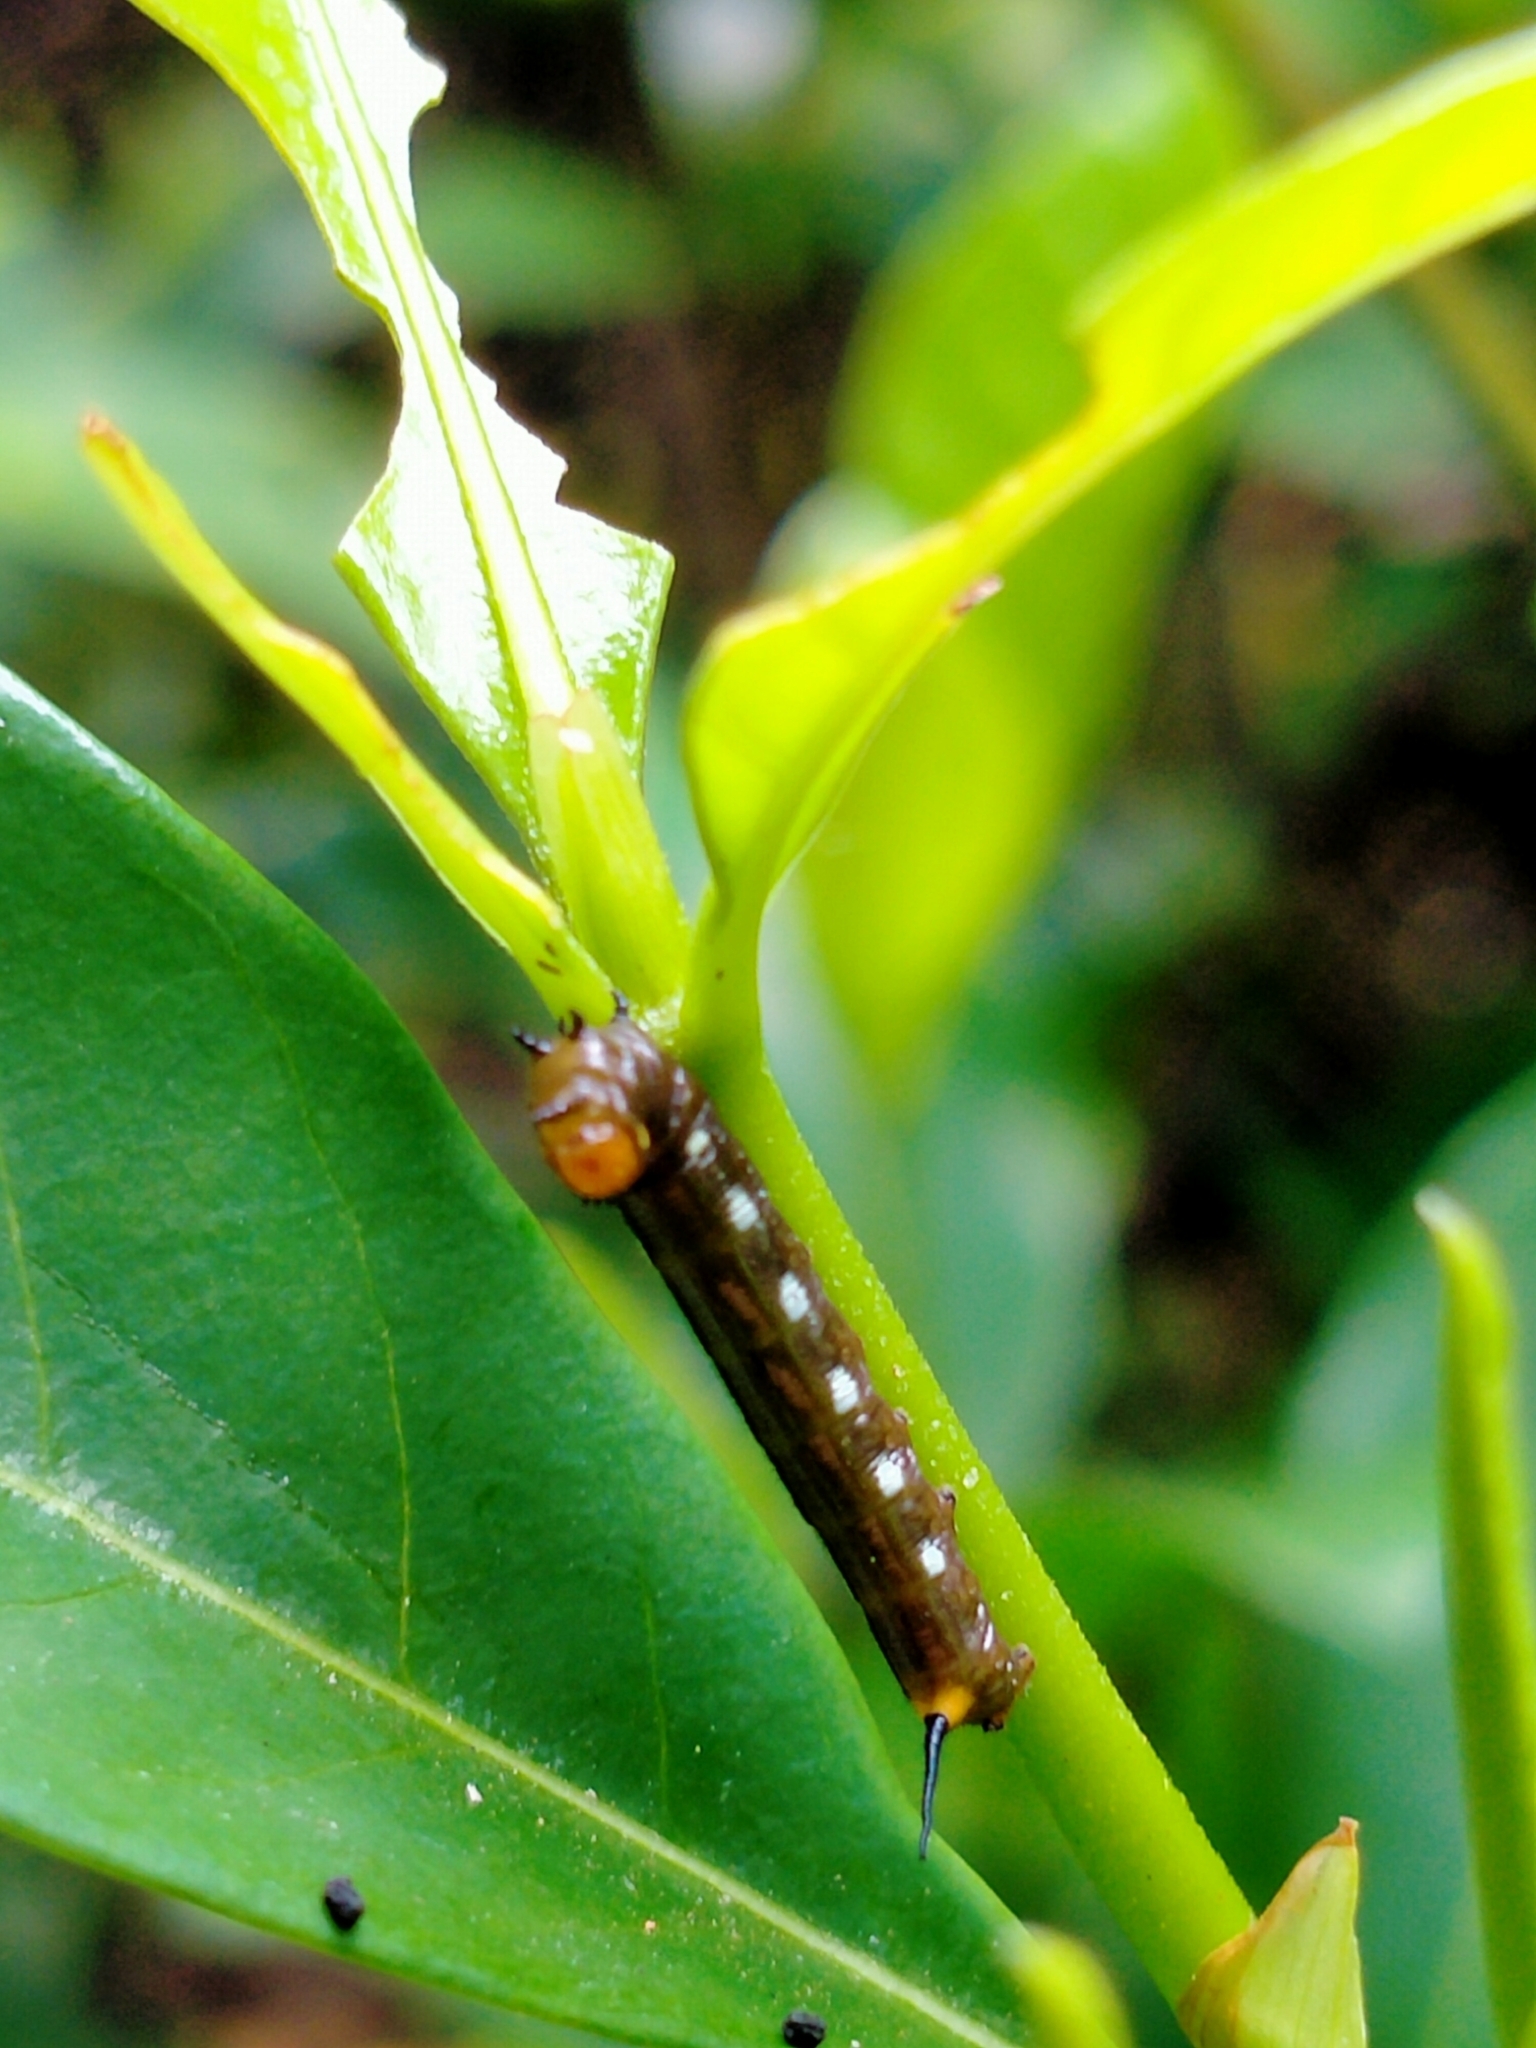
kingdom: Animalia
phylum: Arthropoda
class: Insecta
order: Lepidoptera
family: Sphingidae
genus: Cephonodes
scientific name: Cephonodes kingii
